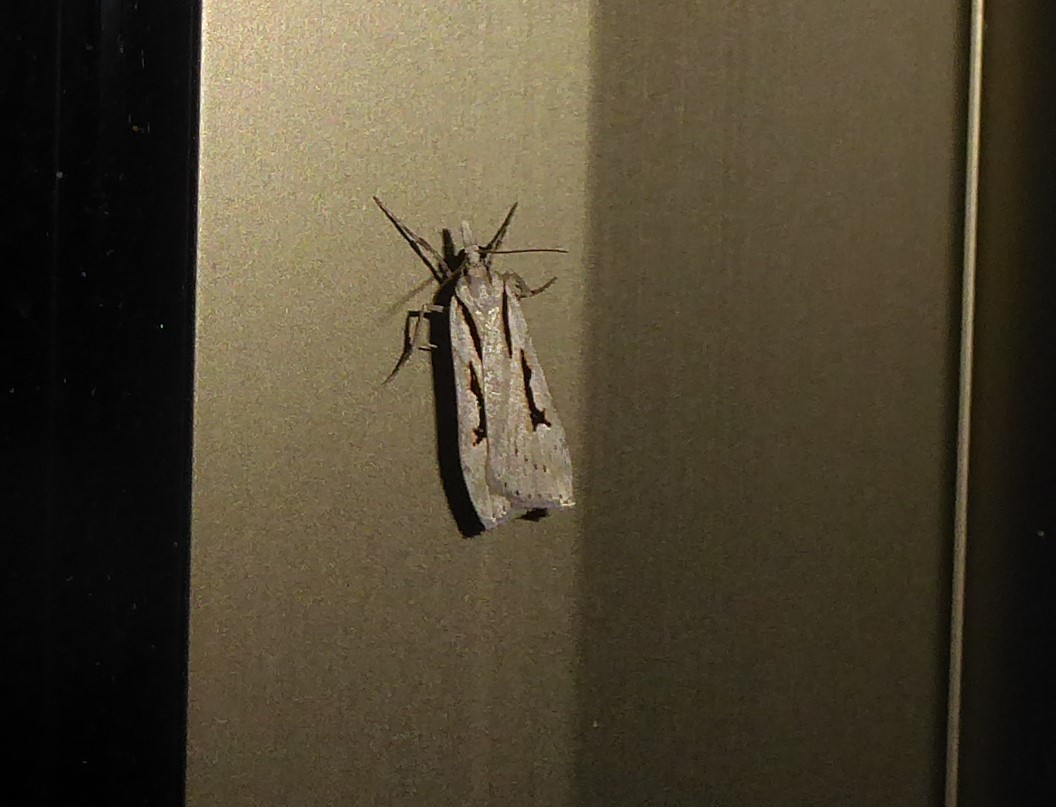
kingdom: Animalia
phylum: Arthropoda
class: Insecta
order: Lepidoptera
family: Crambidae
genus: Scoparia
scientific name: Scoparia rotuellus
